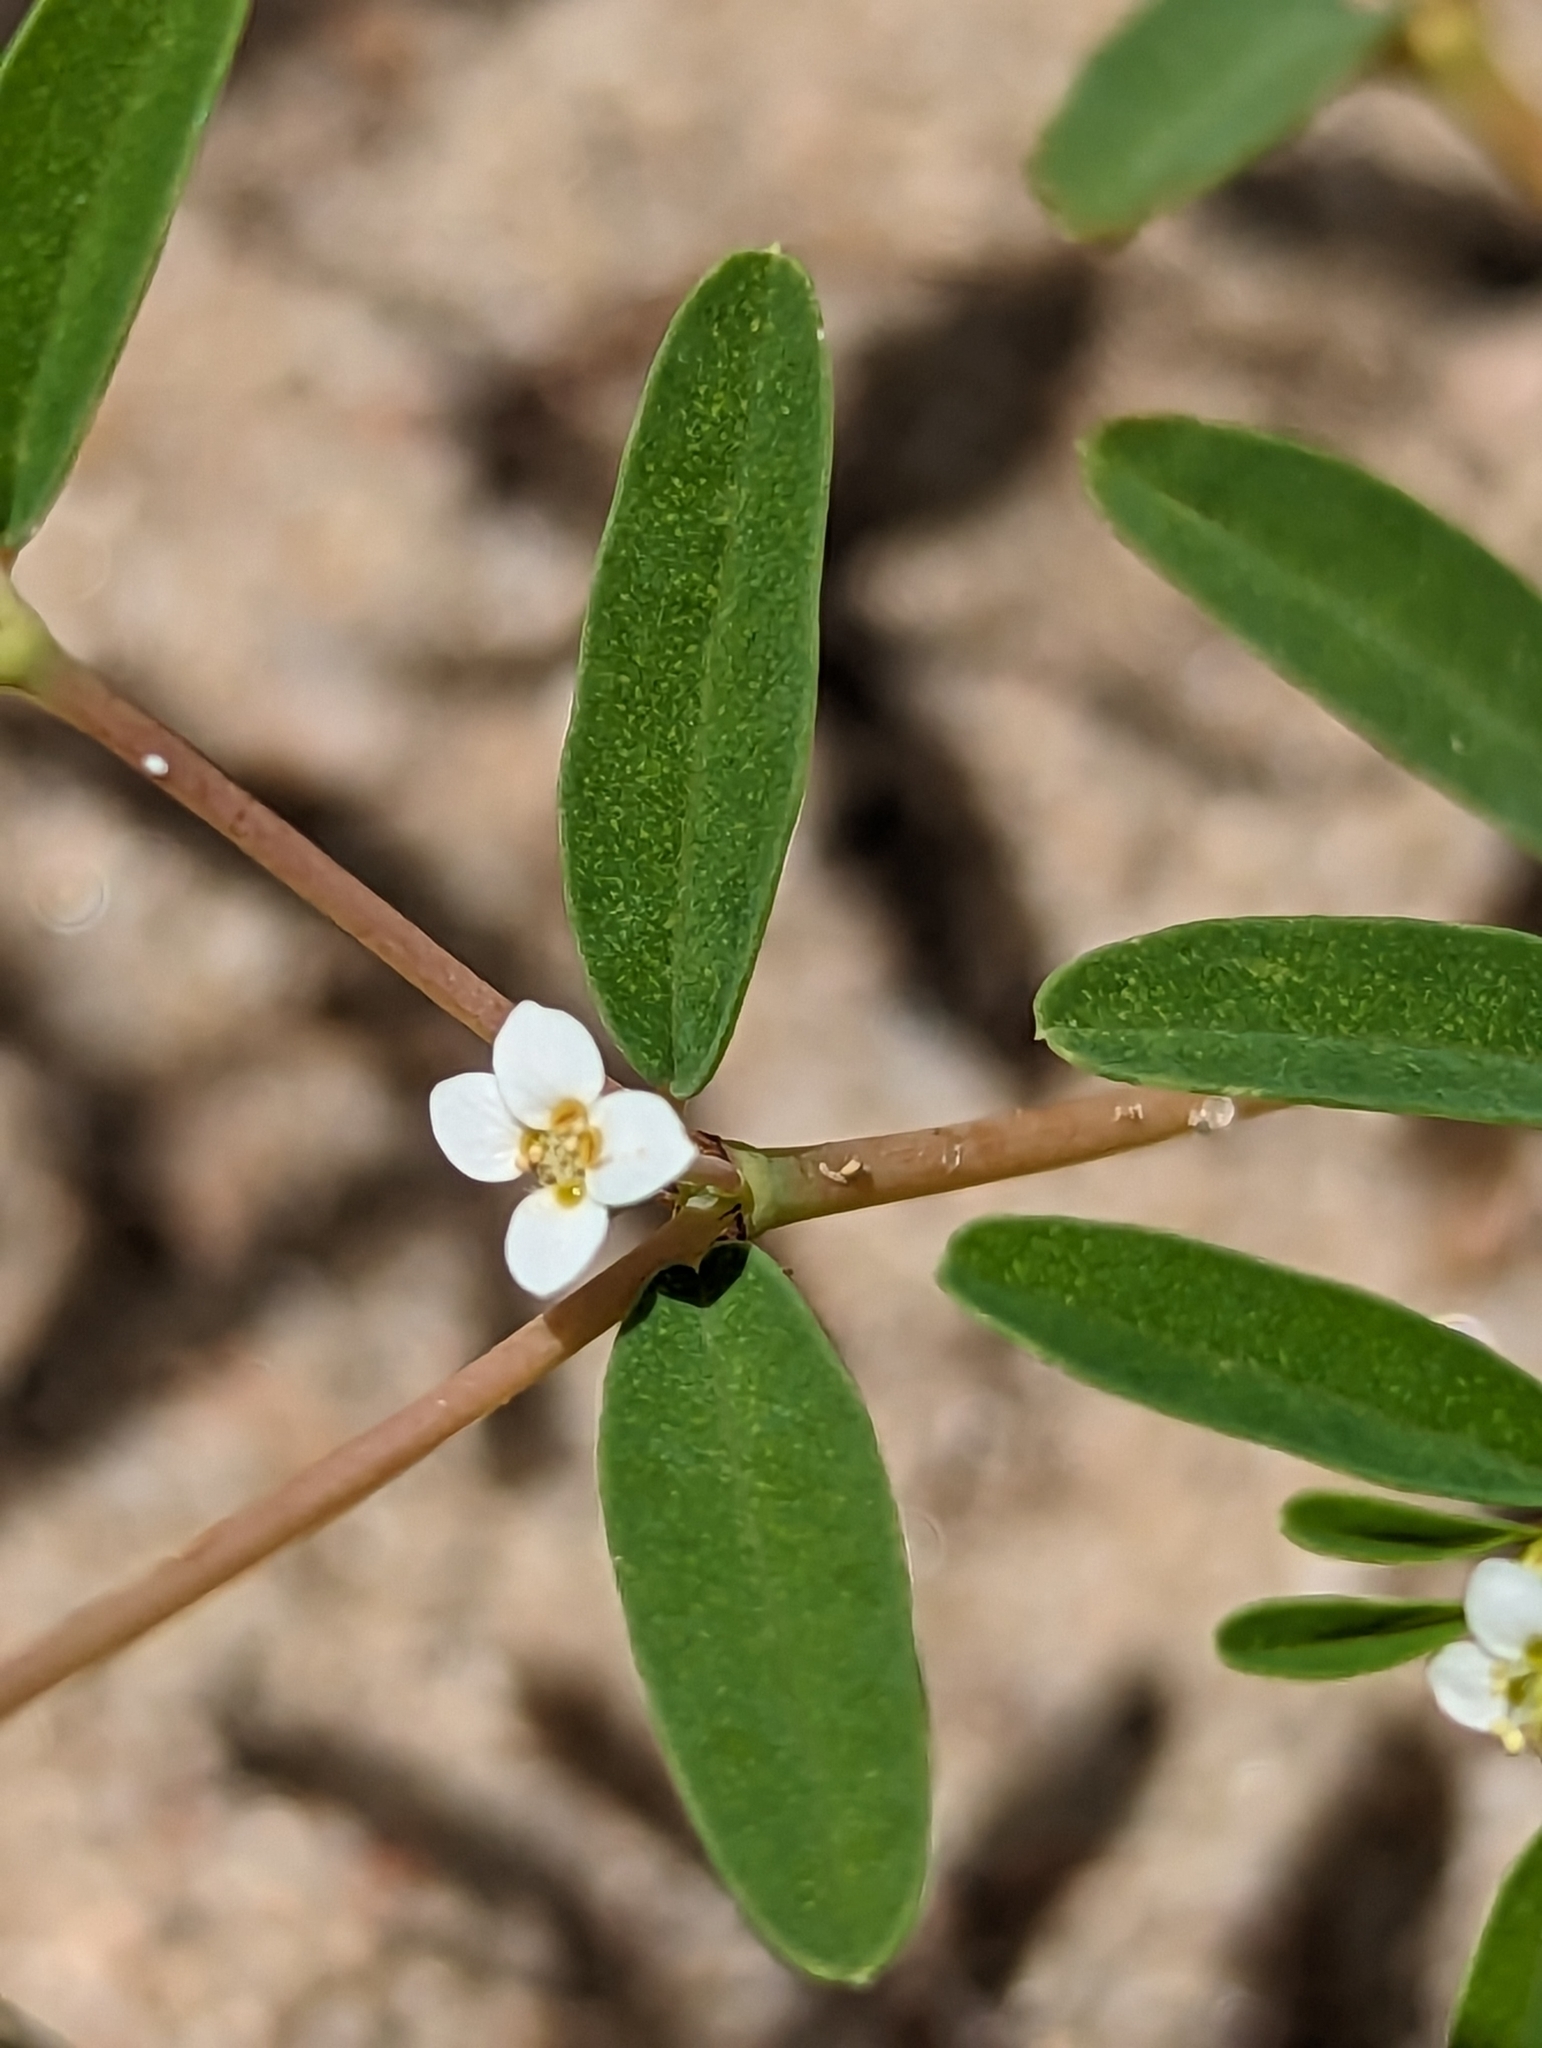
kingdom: Plantae
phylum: Tracheophyta
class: Magnoliopsida
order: Malpighiales
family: Euphorbiaceae
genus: Euphorbia
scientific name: Euphorbia missurica
